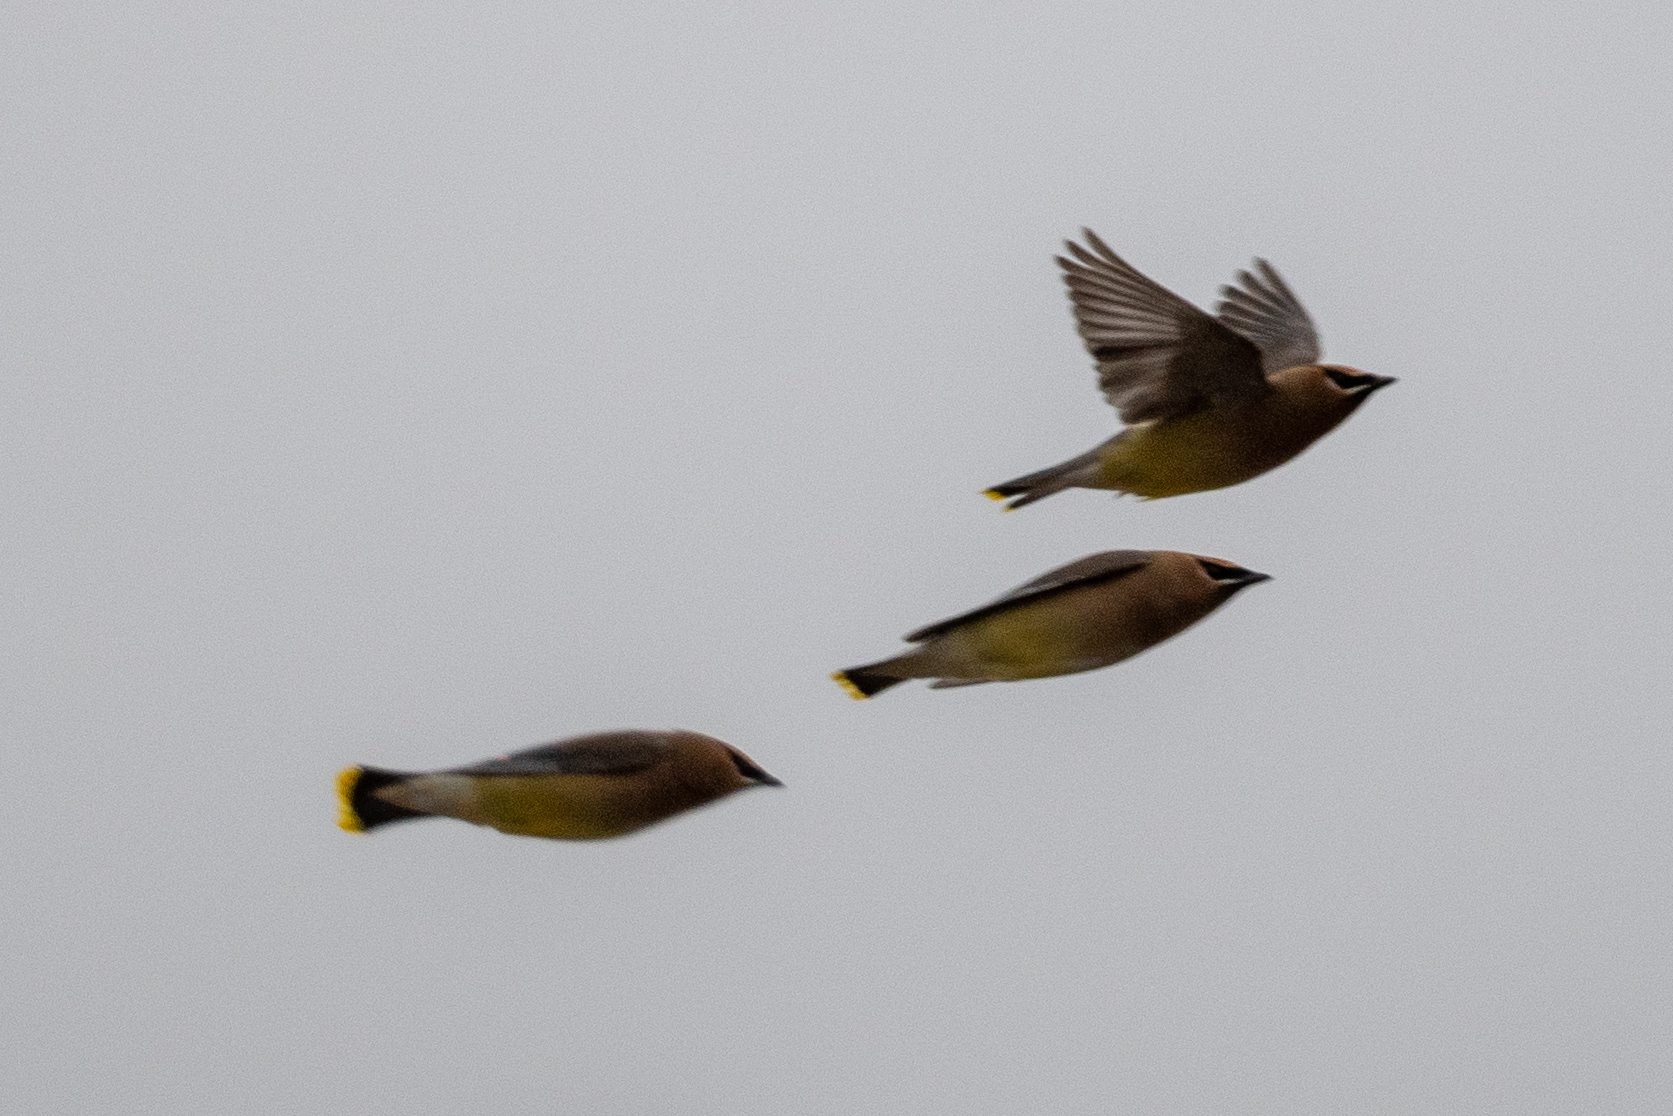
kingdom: Animalia
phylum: Chordata
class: Aves
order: Passeriformes
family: Bombycillidae
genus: Bombycilla
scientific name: Bombycilla cedrorum
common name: Cedar waxwing
